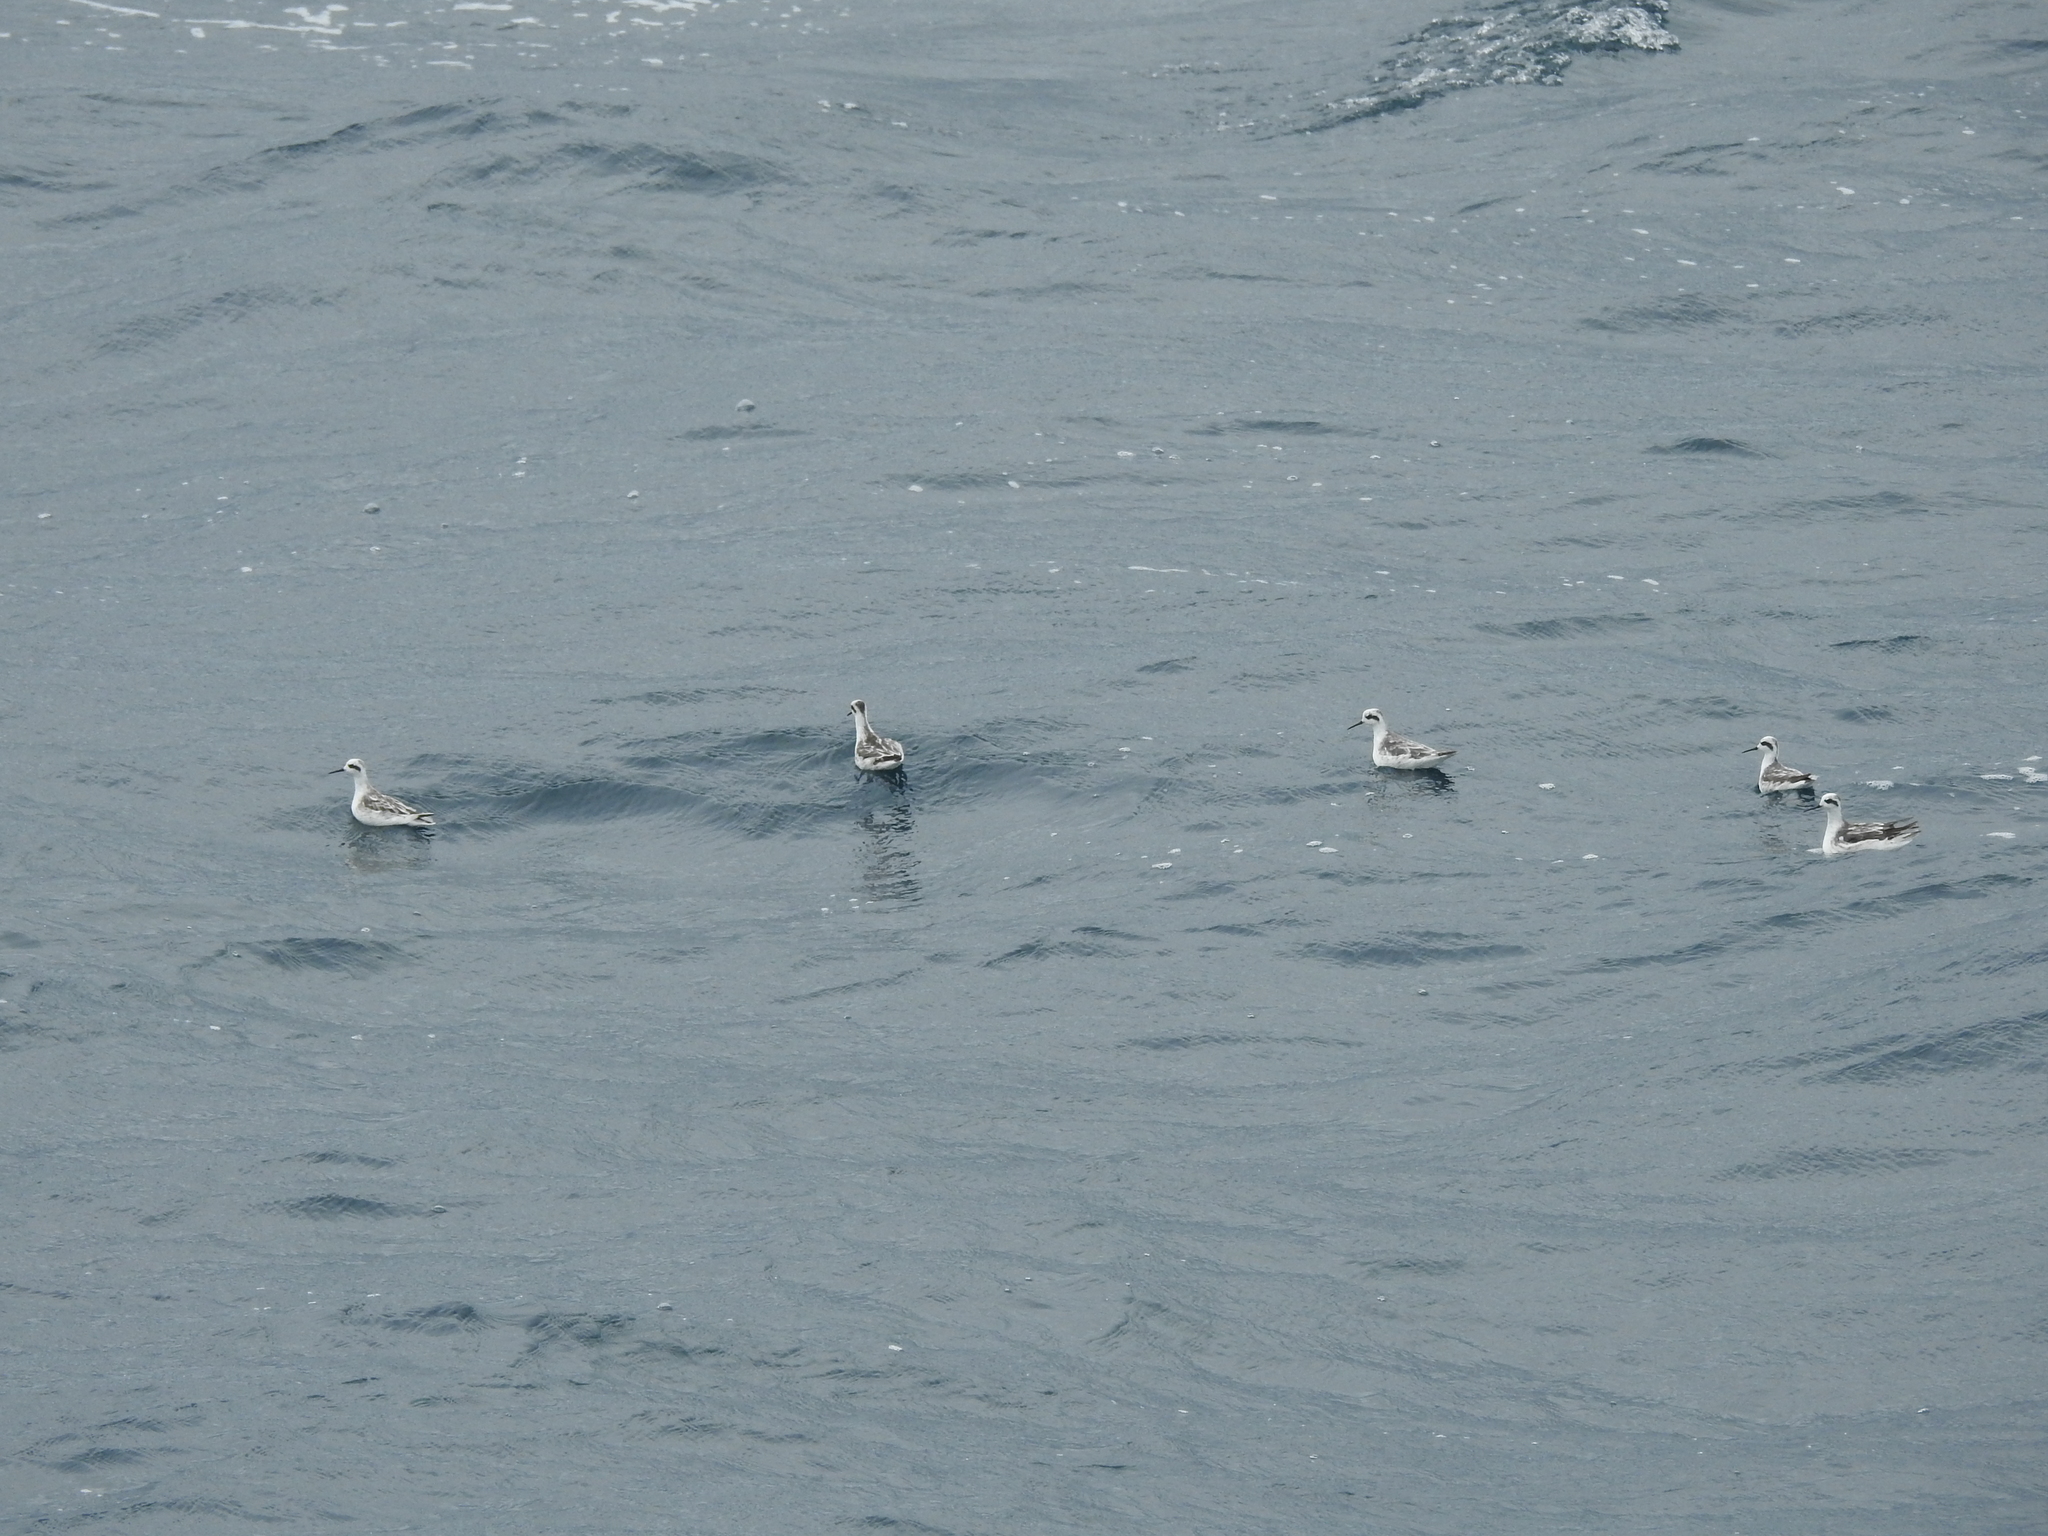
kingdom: Animalia
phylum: Chordata
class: Aves
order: Charadriiformes
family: Scolopacidae
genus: Phalaropus
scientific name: Phalaropus lobatus
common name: Red-necked phalarope
